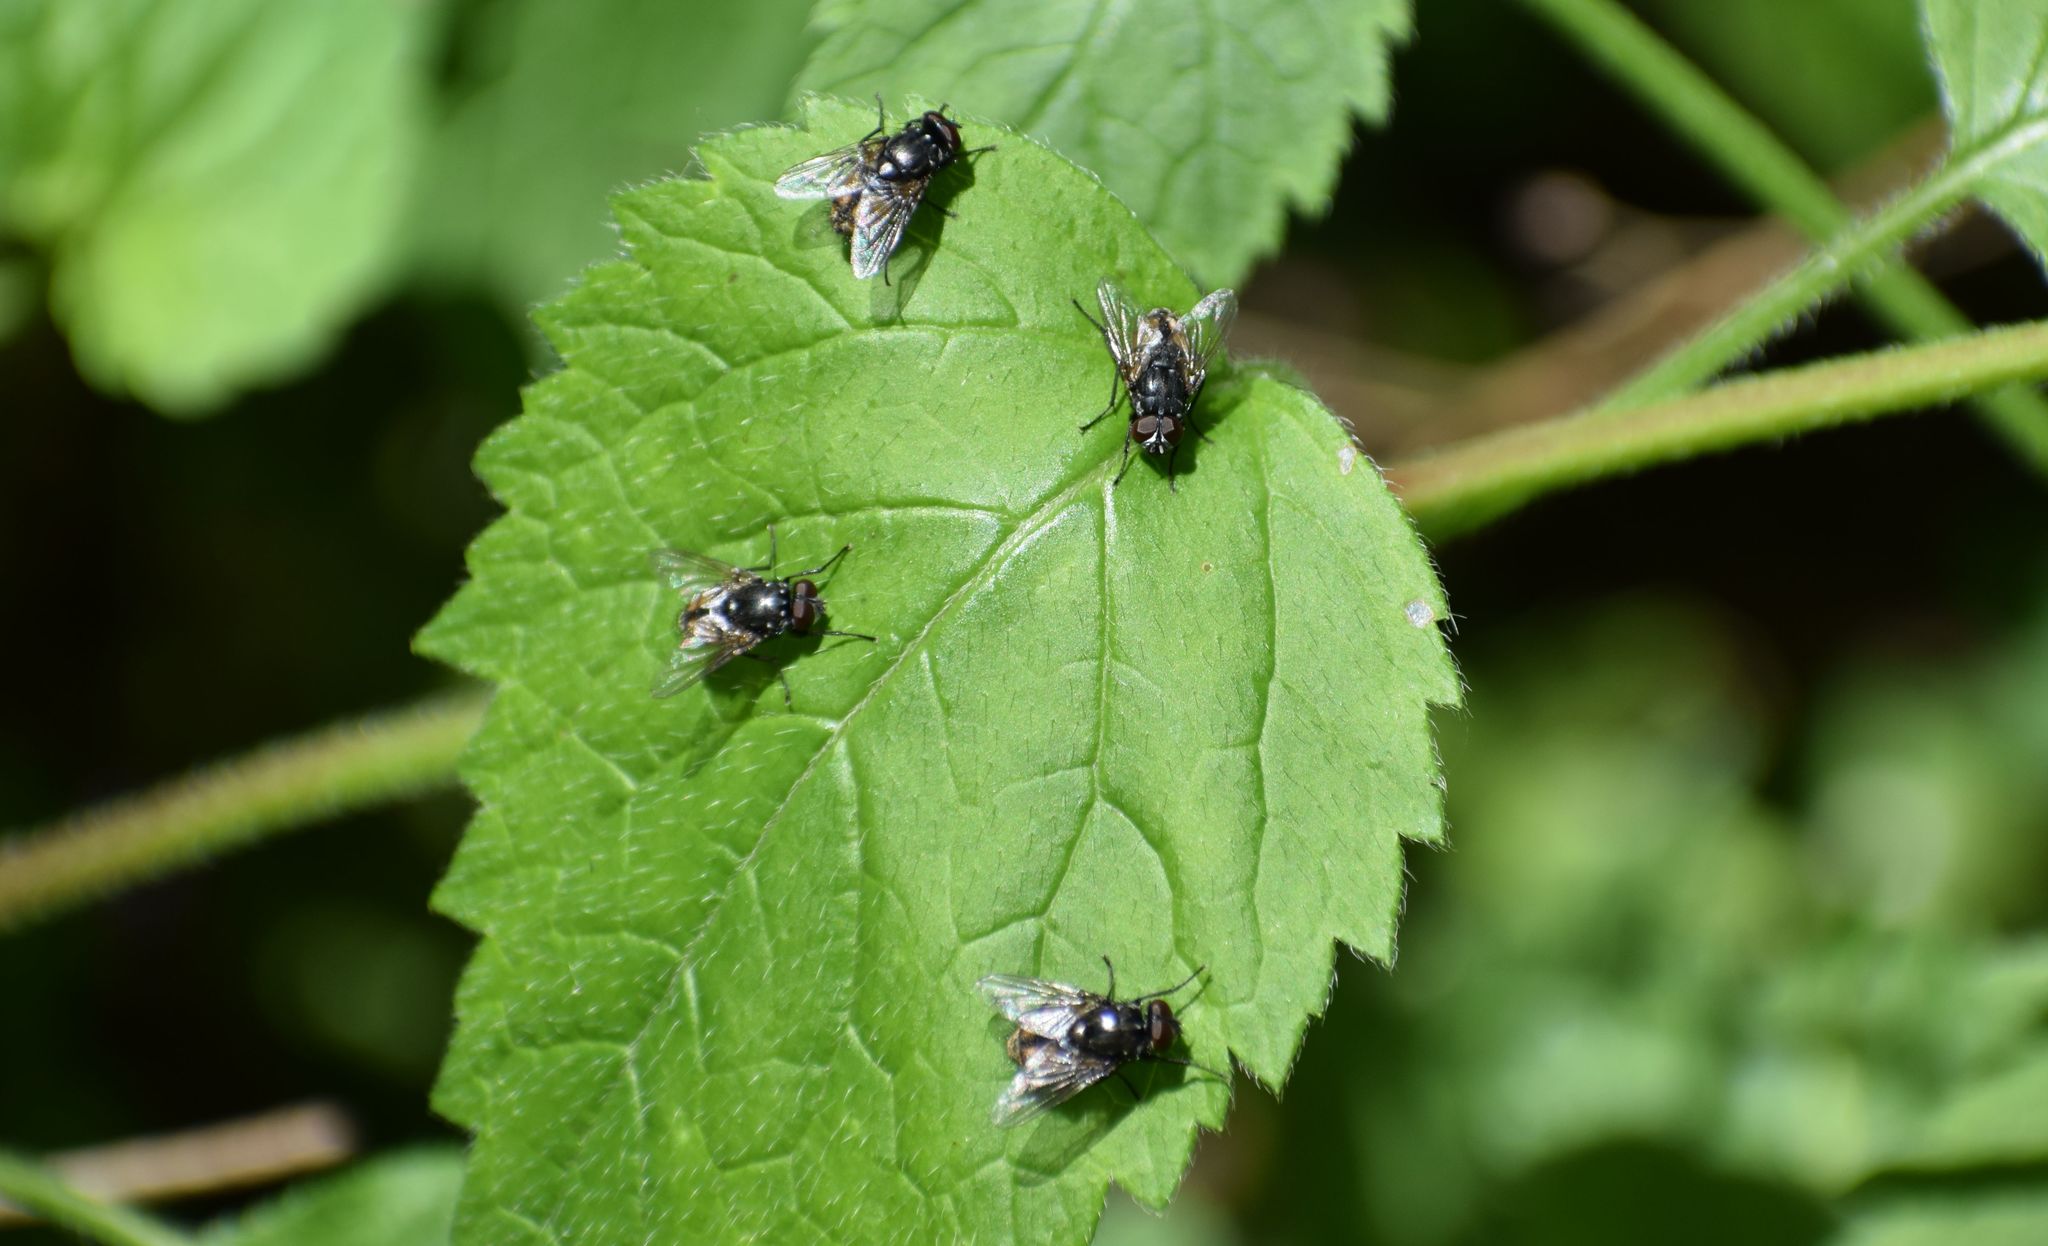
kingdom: Animalia
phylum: Arthropoda
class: Insecta
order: Diptera
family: Muscidae
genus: Musca
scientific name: Musca autumnalis
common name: Face fly
